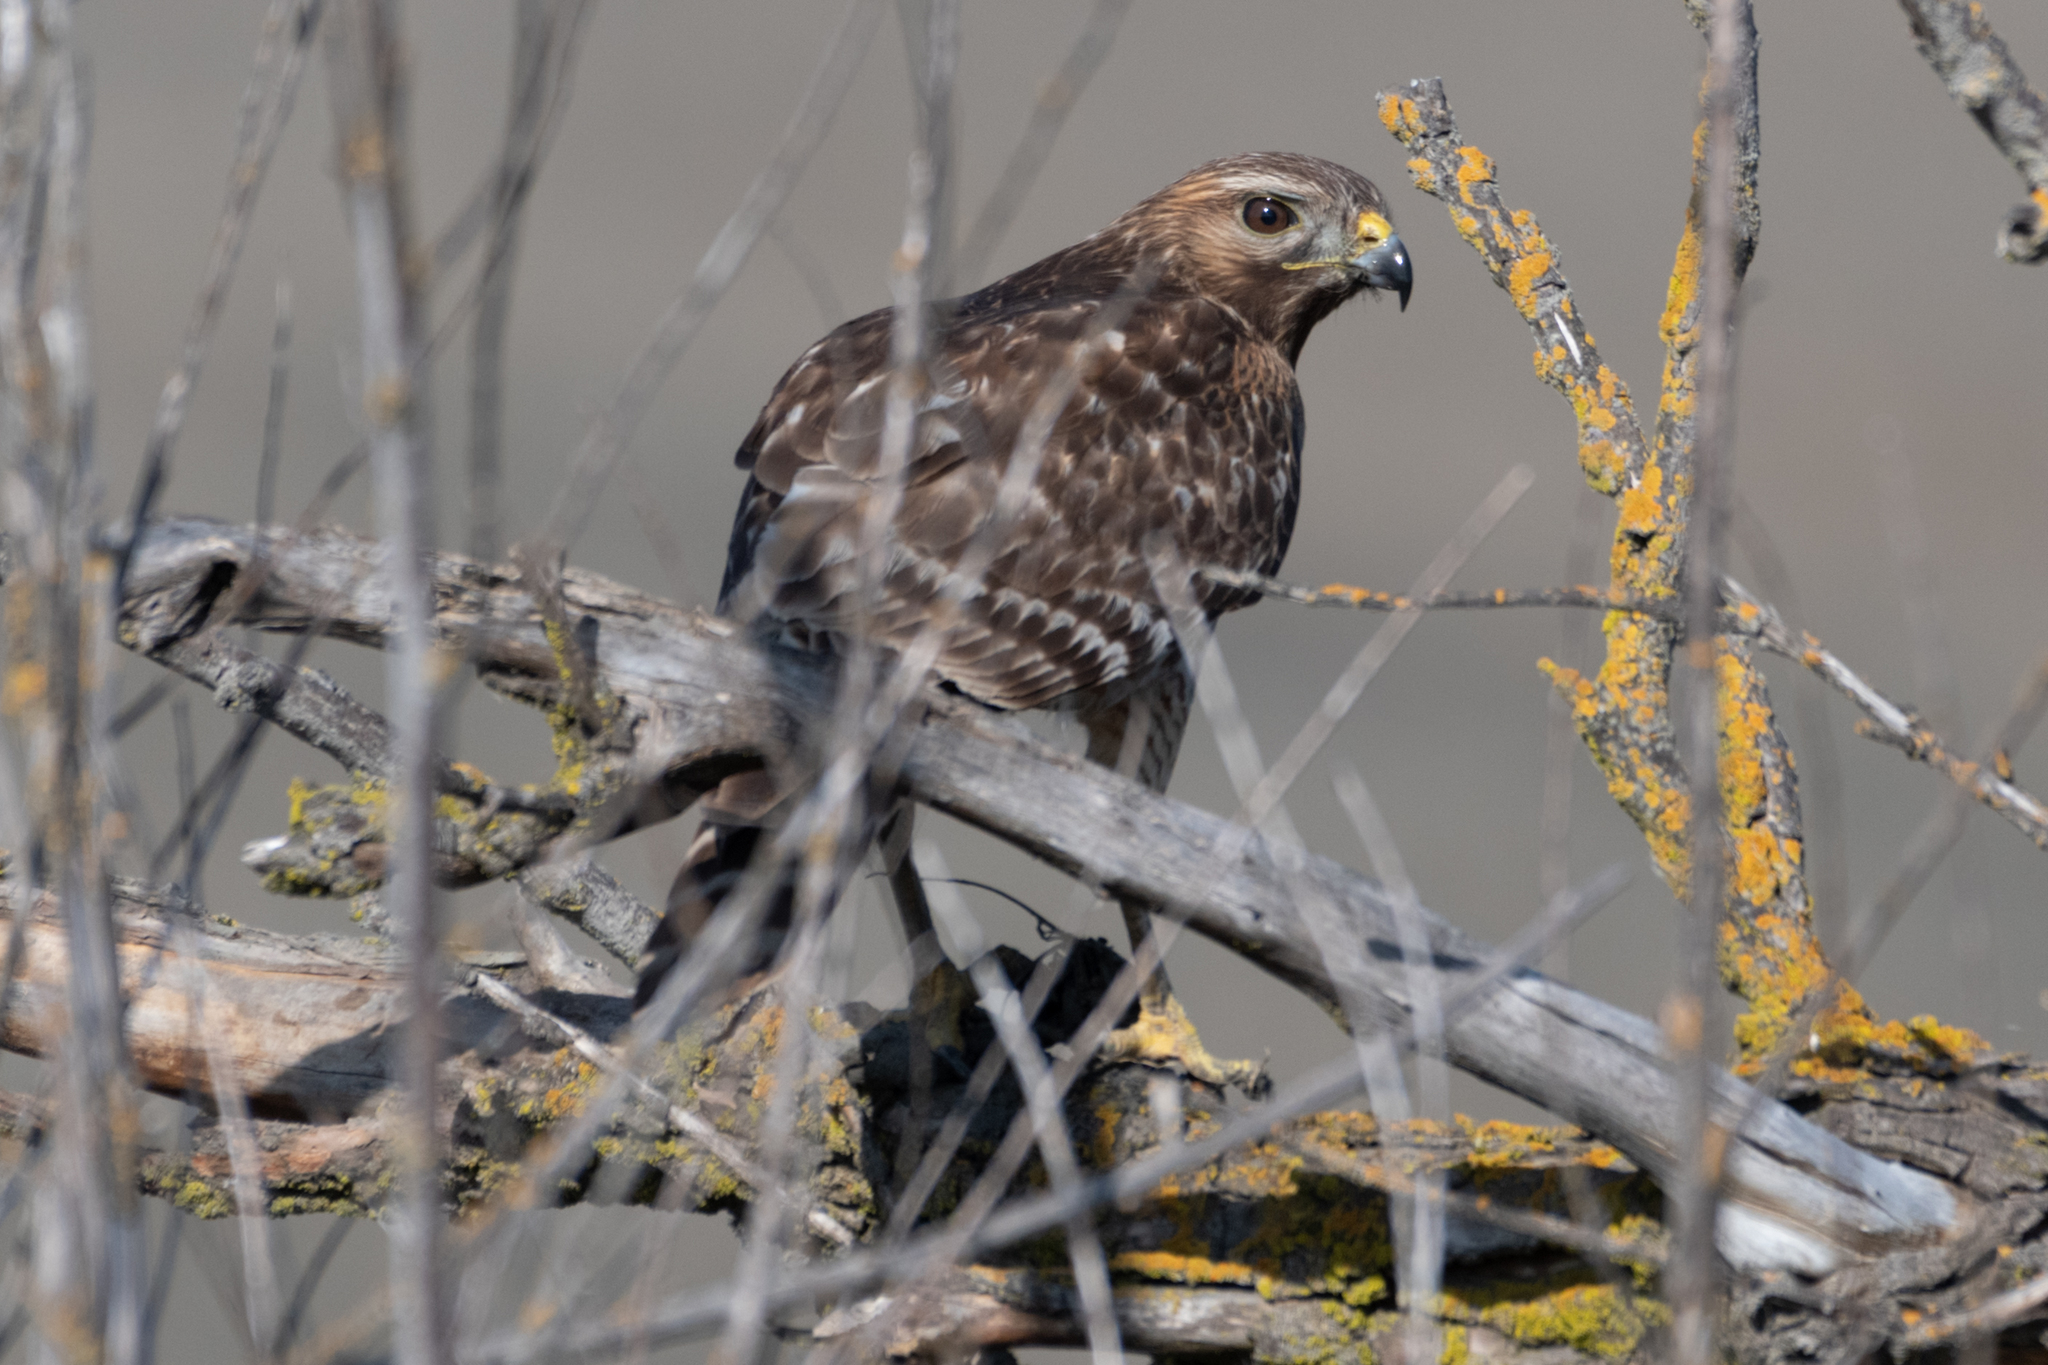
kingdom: Animalia
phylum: Chordata
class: Aves
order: Accipitriformes
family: Accipitridae
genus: Buteo
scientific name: Buteo lineatus
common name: Red-shouldered hawk
